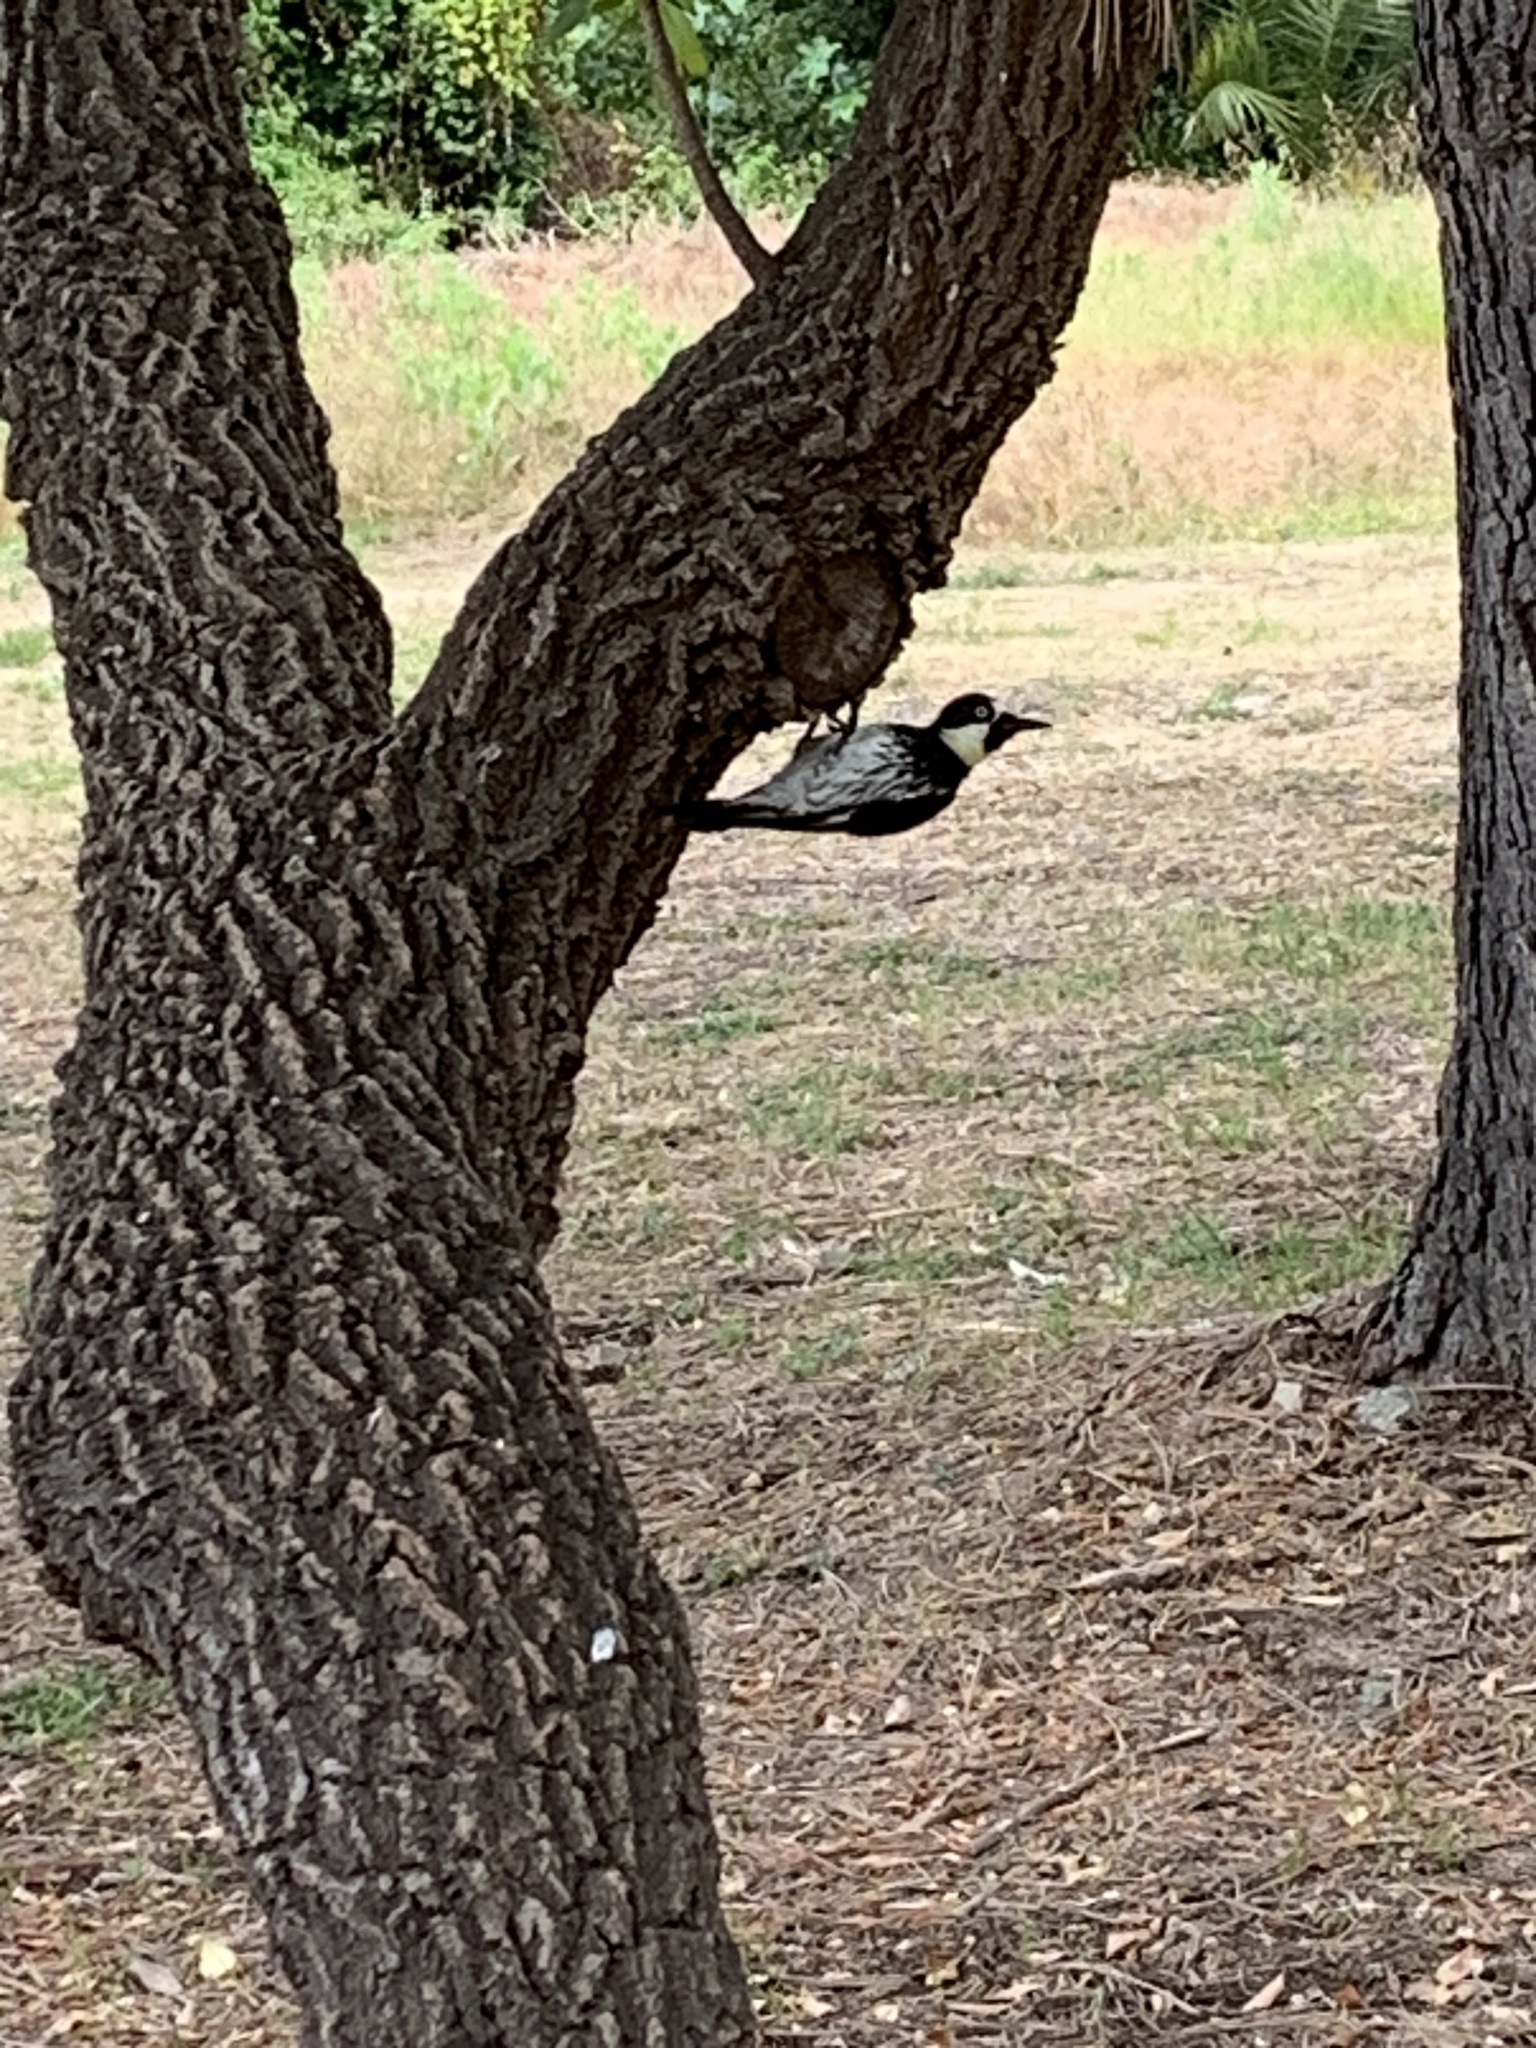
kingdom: Animalia
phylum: Chordata
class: Aves
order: Piciformes
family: Picidae
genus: Melanerpes
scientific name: Melanerpes formicivorus
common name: Acorn woodpecker
